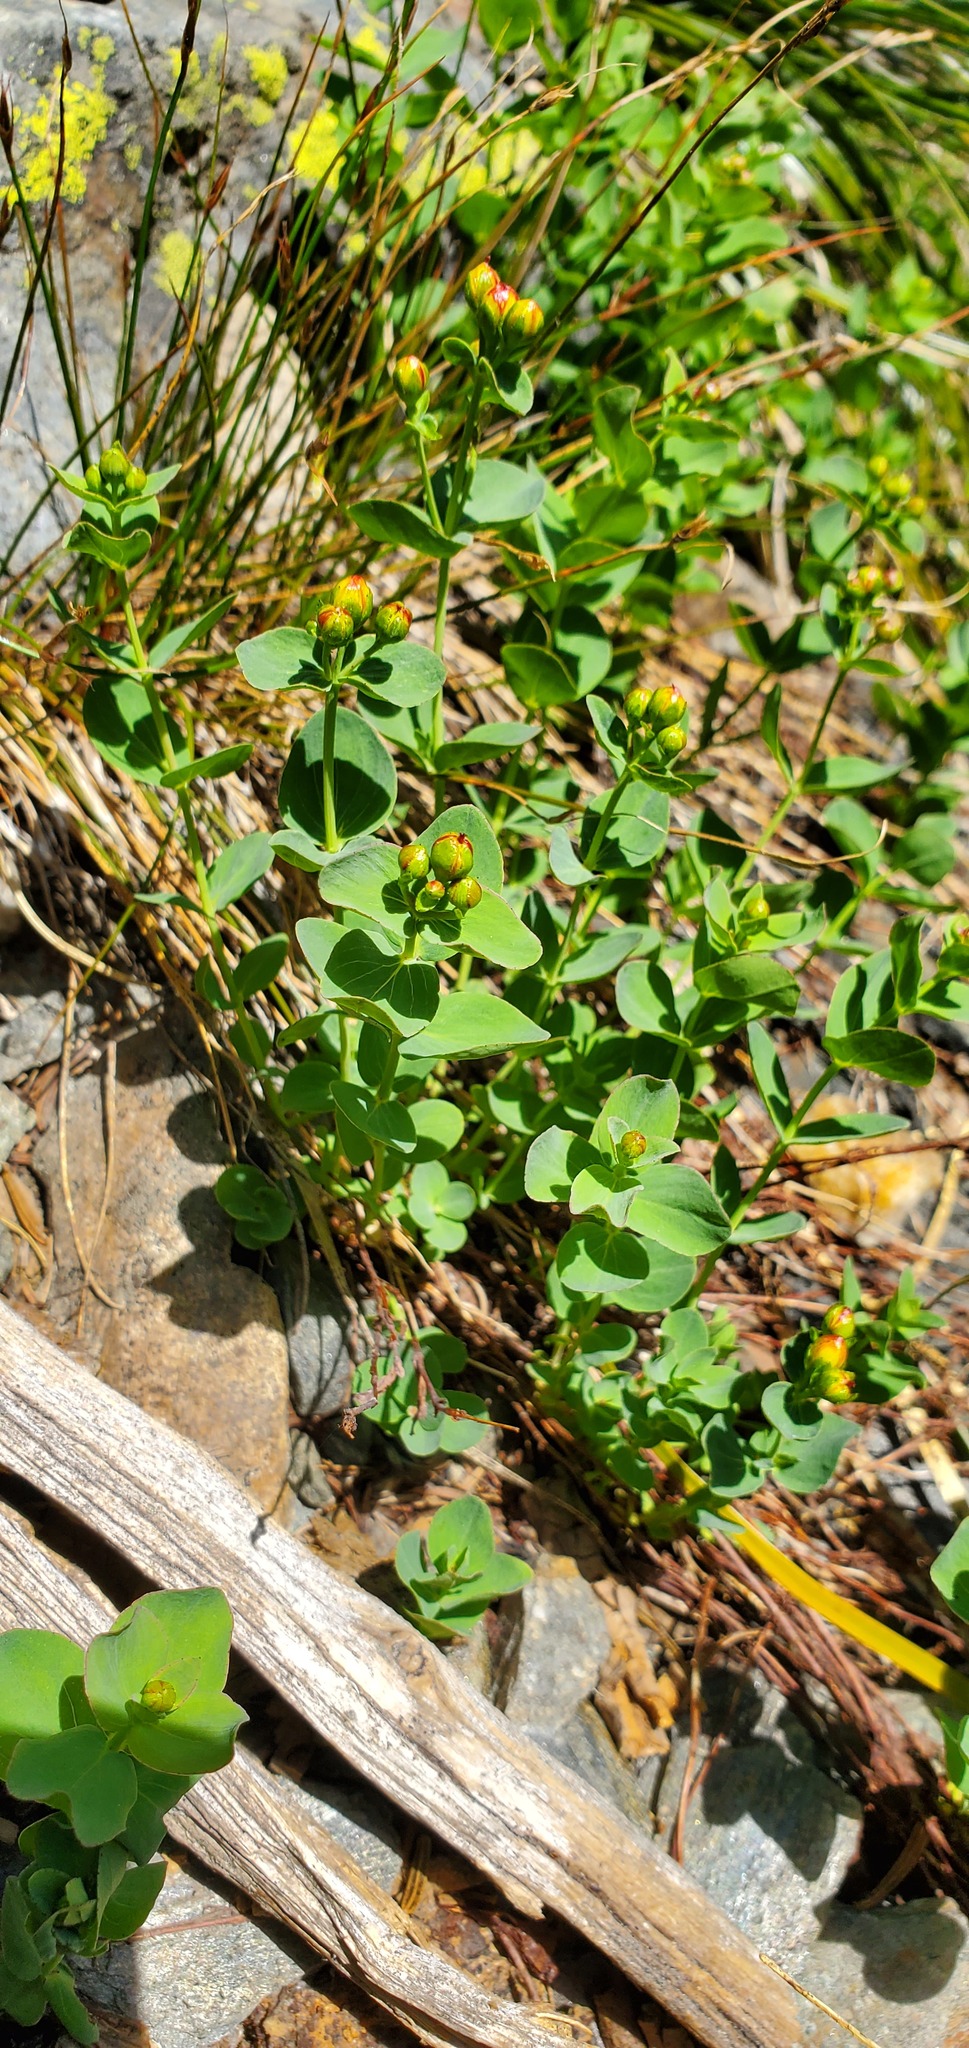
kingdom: Plantae
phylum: Tracheophyta
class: Magnoliopsida
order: Malpighiales
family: Hypericaceae
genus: Hypericum
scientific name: Hypericum scouleri
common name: Scouler's st. john's-wort
